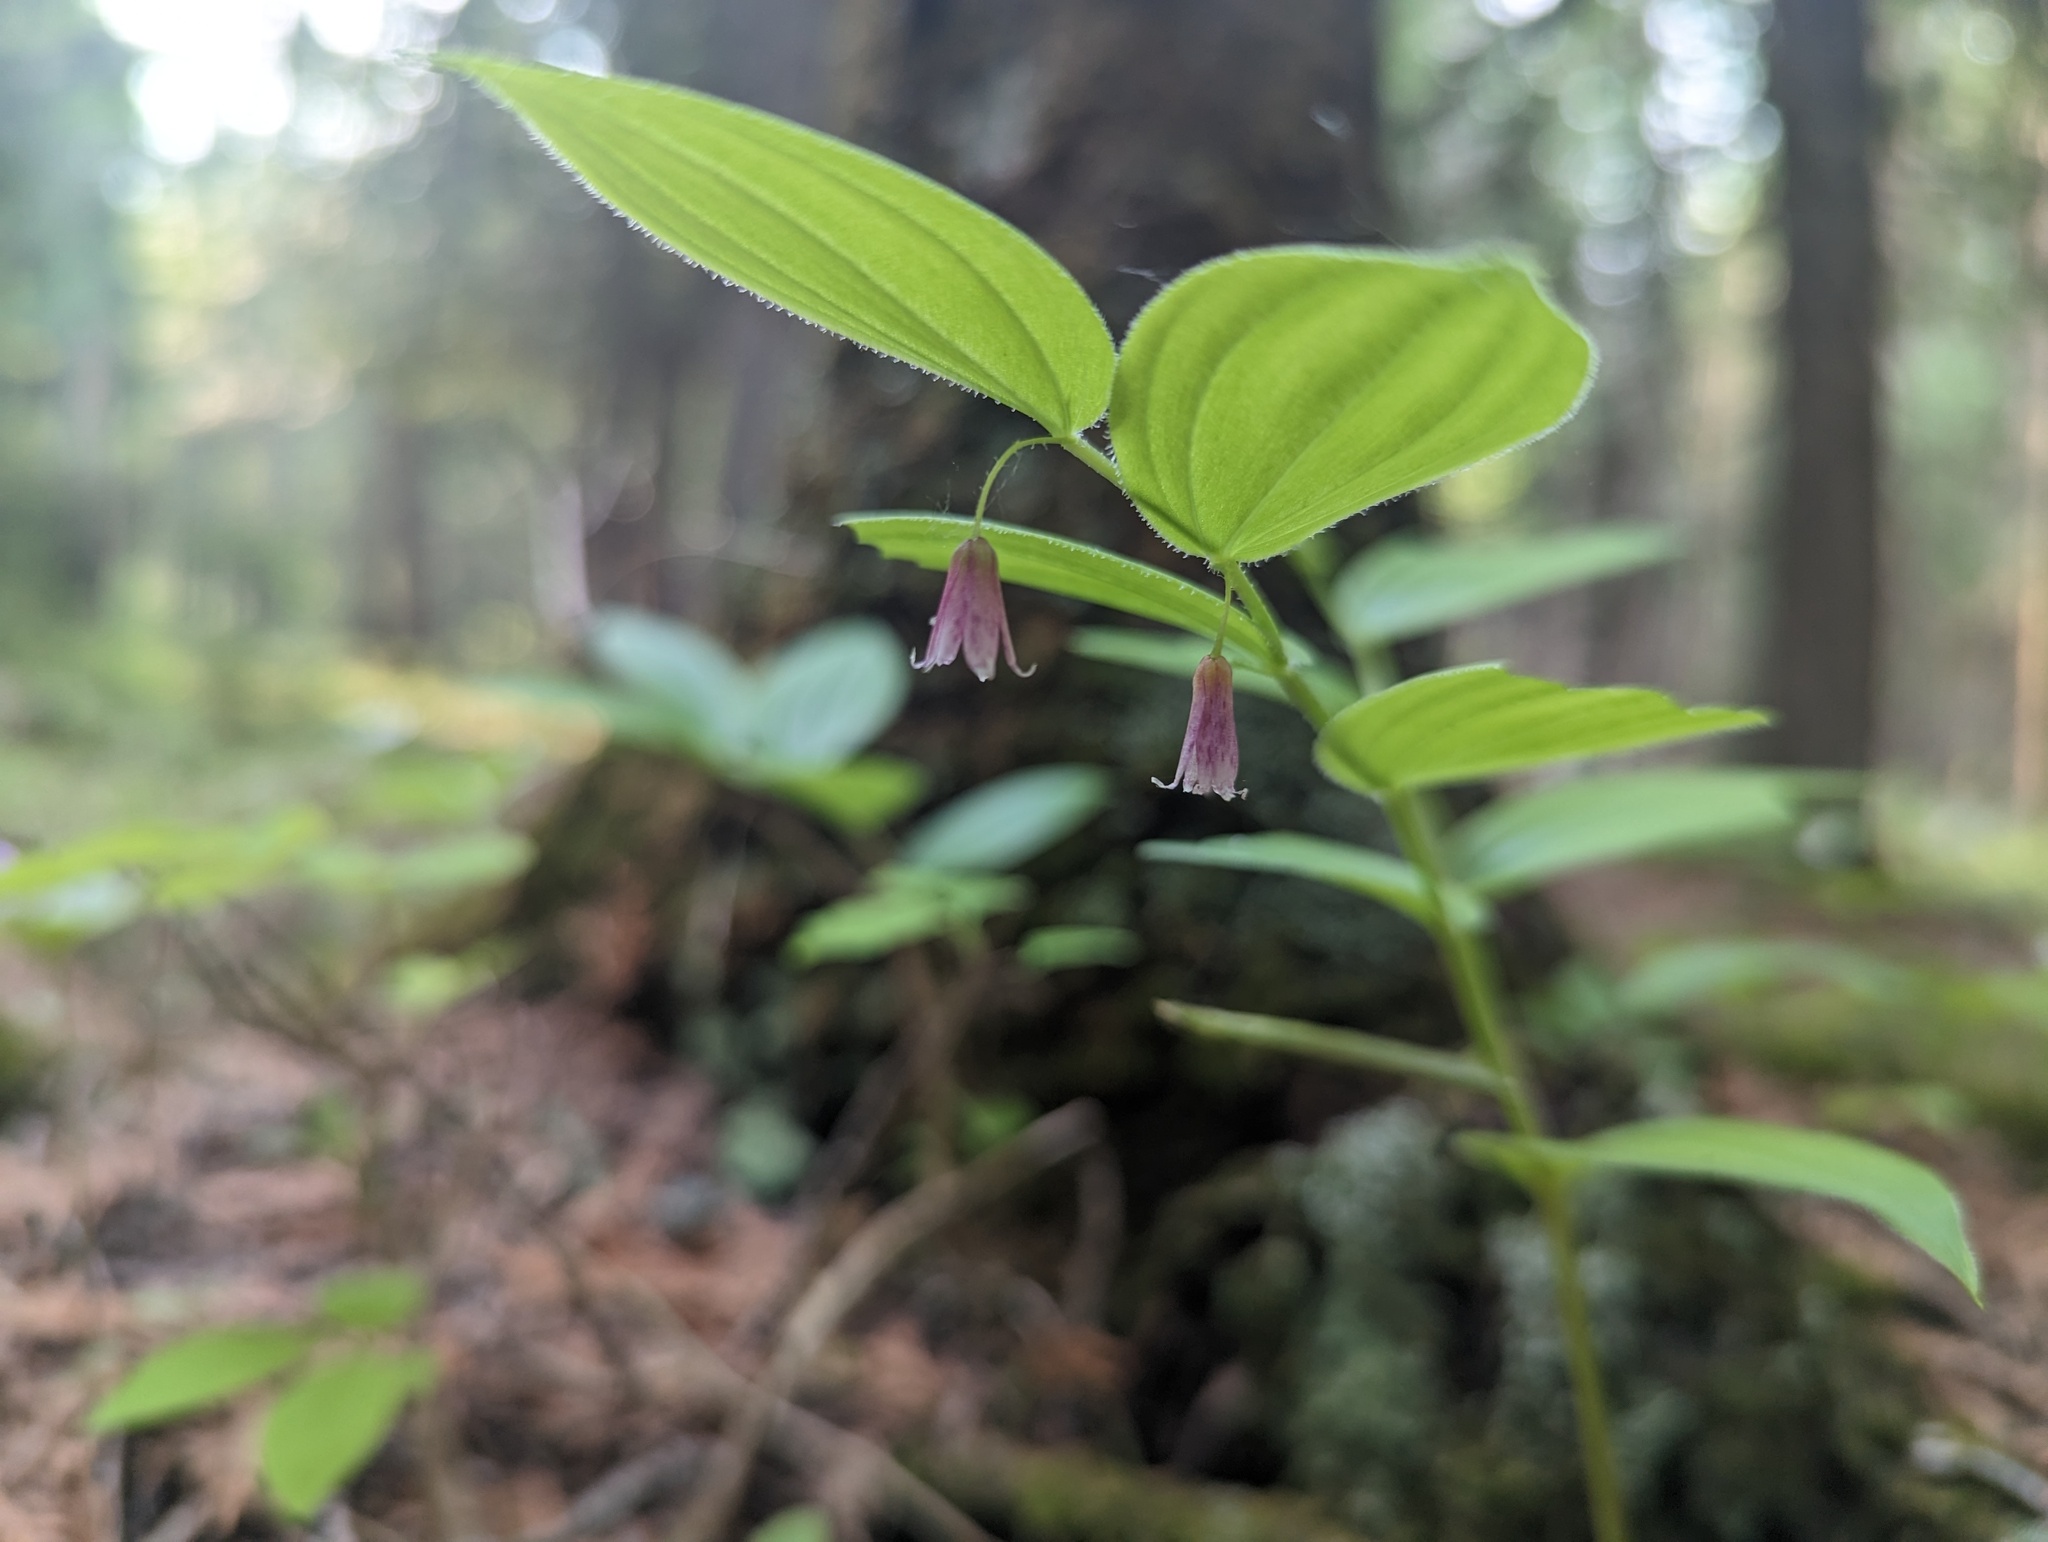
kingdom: Plantae
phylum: Tracheophyta
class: Liliopsida
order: Liliales
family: Liliaceae
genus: Streptopus
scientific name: Streptopus lanceolatus
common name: Rose mandarin
